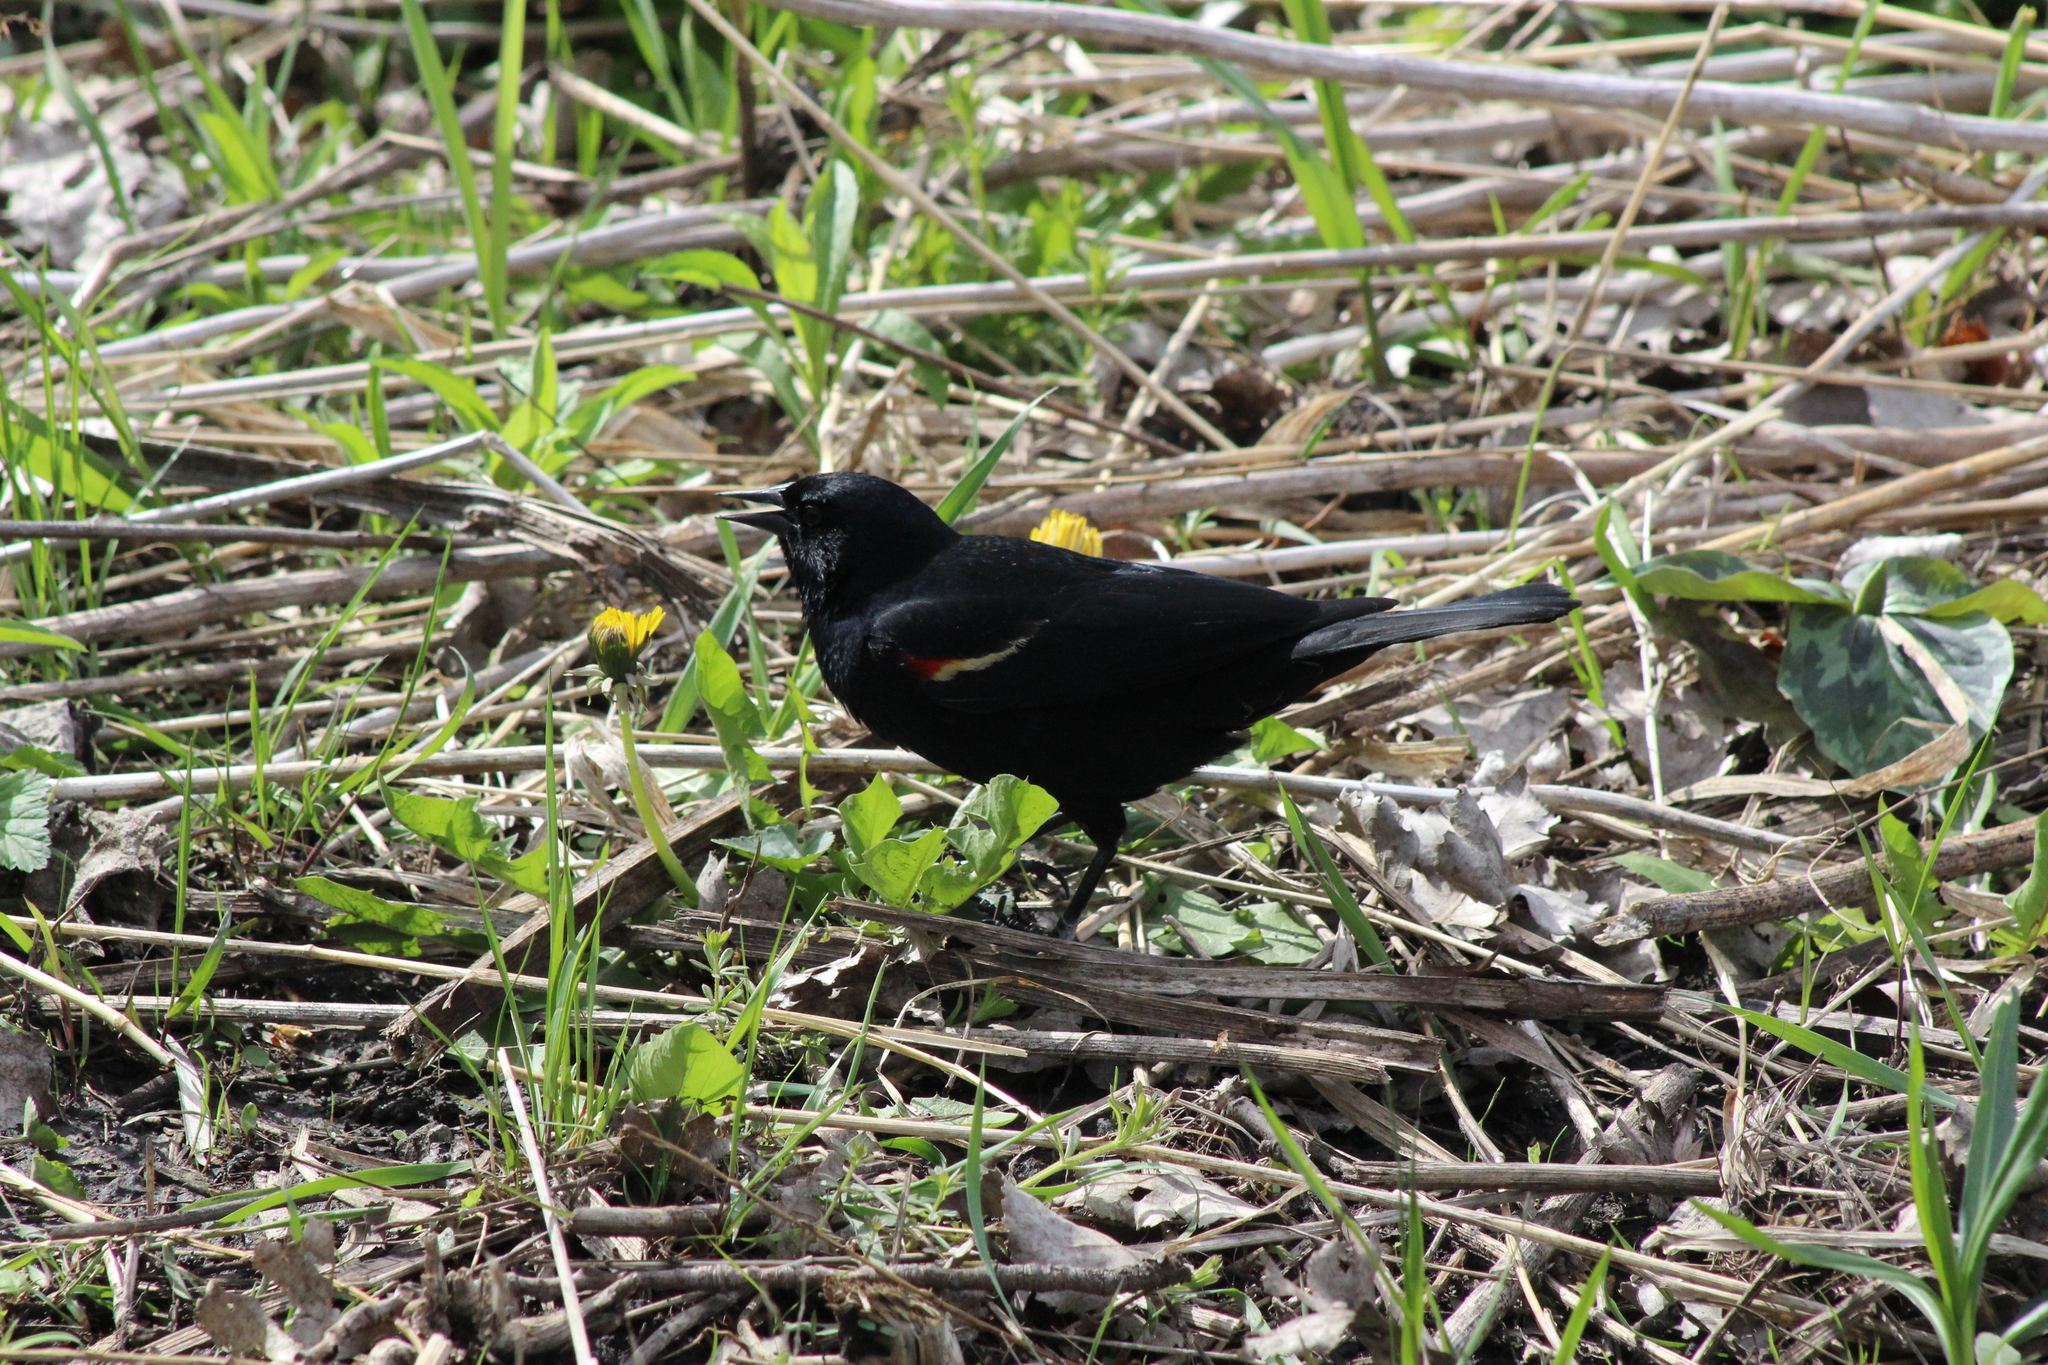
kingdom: Animalia
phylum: Chordata
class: Aves
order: Passeriformes
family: Icteridae
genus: Agelaius
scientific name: Agelaius phoeniceus
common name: Red-winged blackbird
